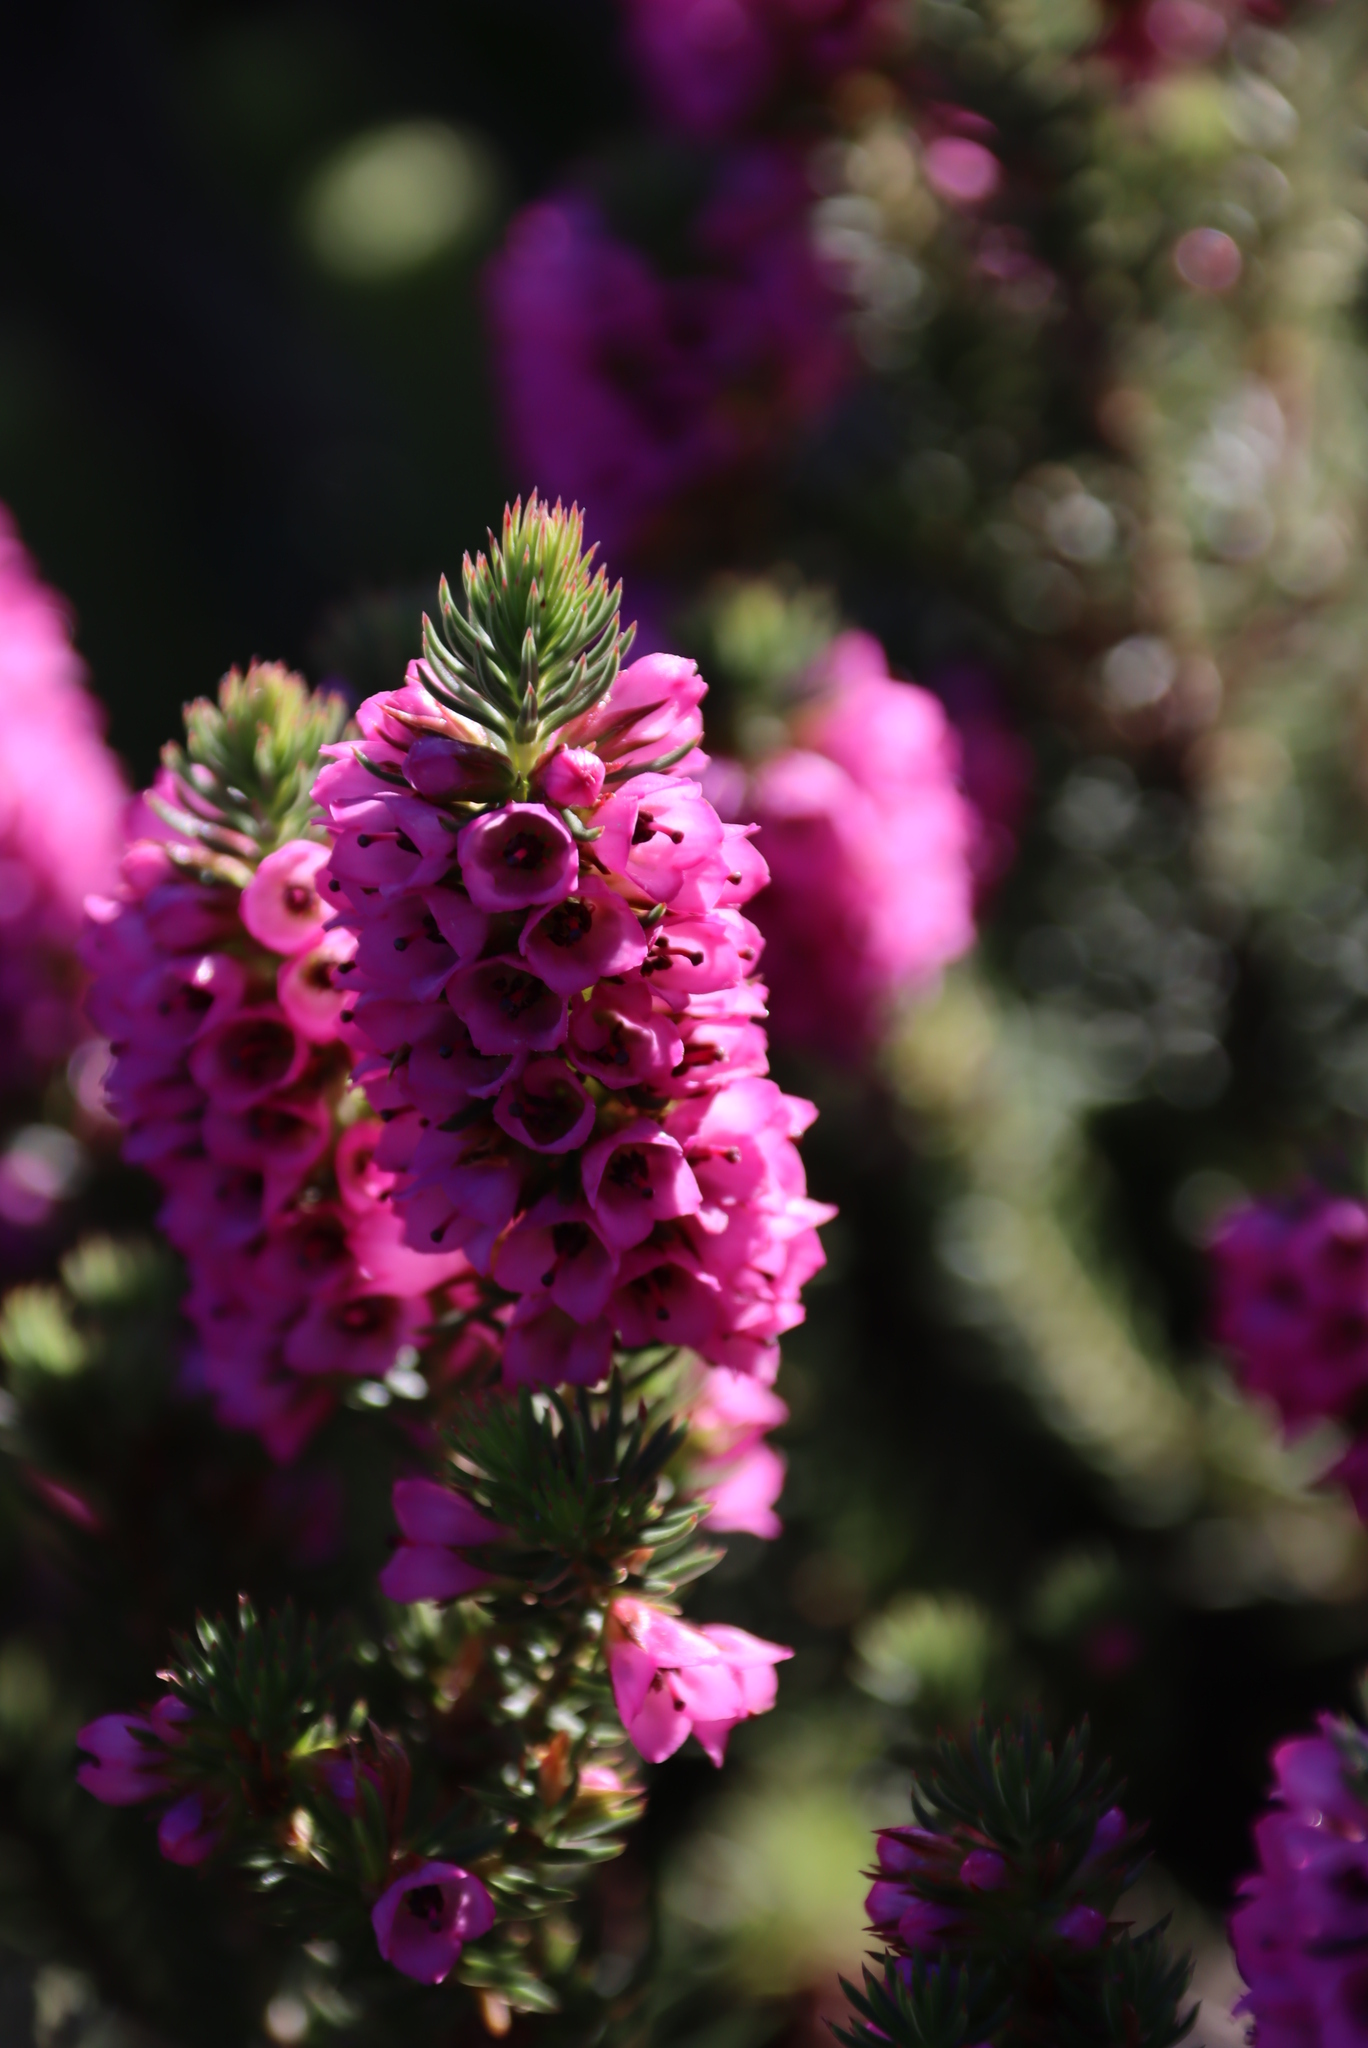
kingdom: Plantae
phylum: Tracheophyta
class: Magnoliopsida
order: Ericales
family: Ericaceae
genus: Erica
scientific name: Erica abietina
